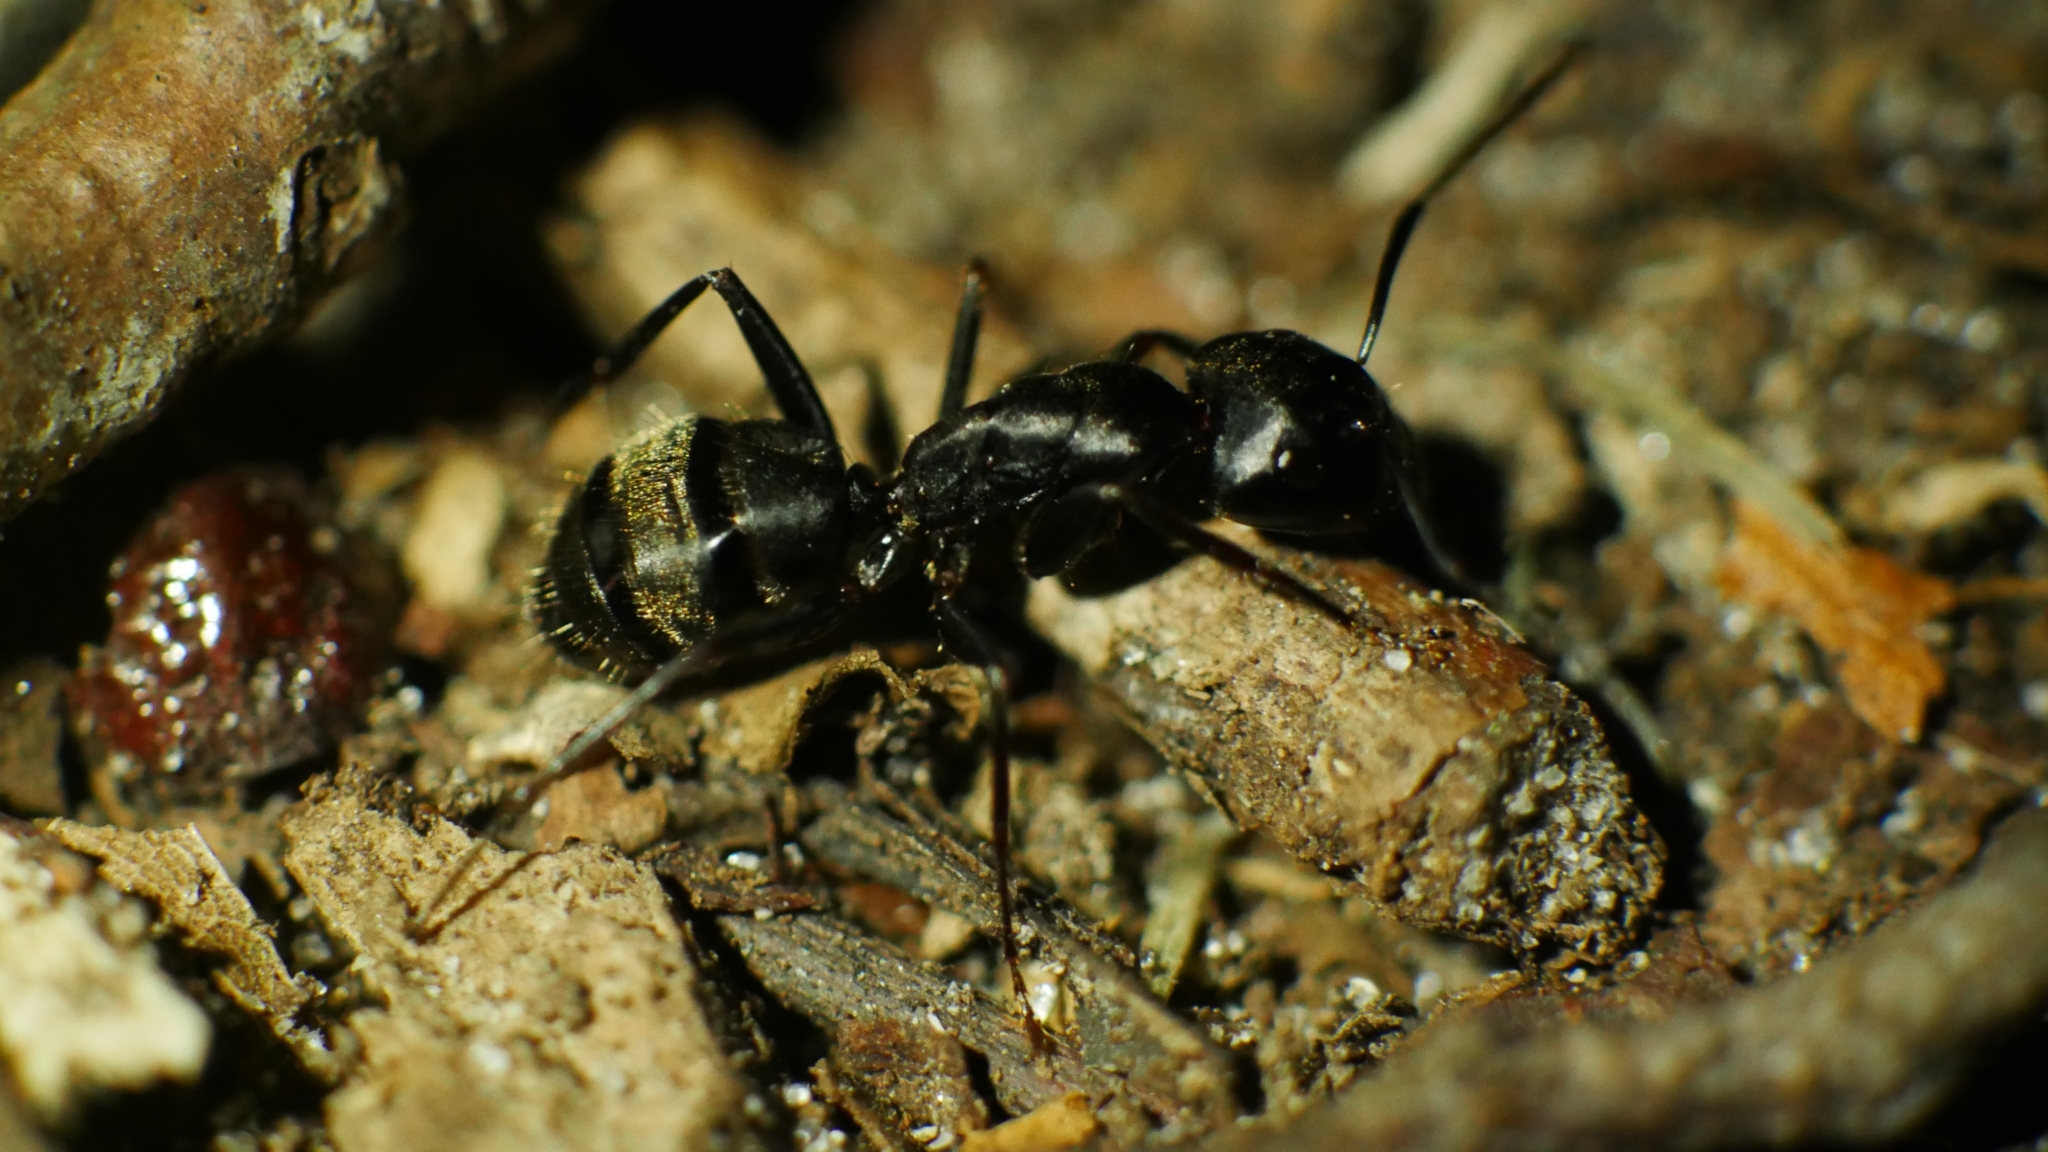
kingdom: Animalia
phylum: Arthropoda
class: Insecta
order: Hymenoptera
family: Formicidae
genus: Camponotus
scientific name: Camponotus pennsylvanicus
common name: Black carpenter ant
